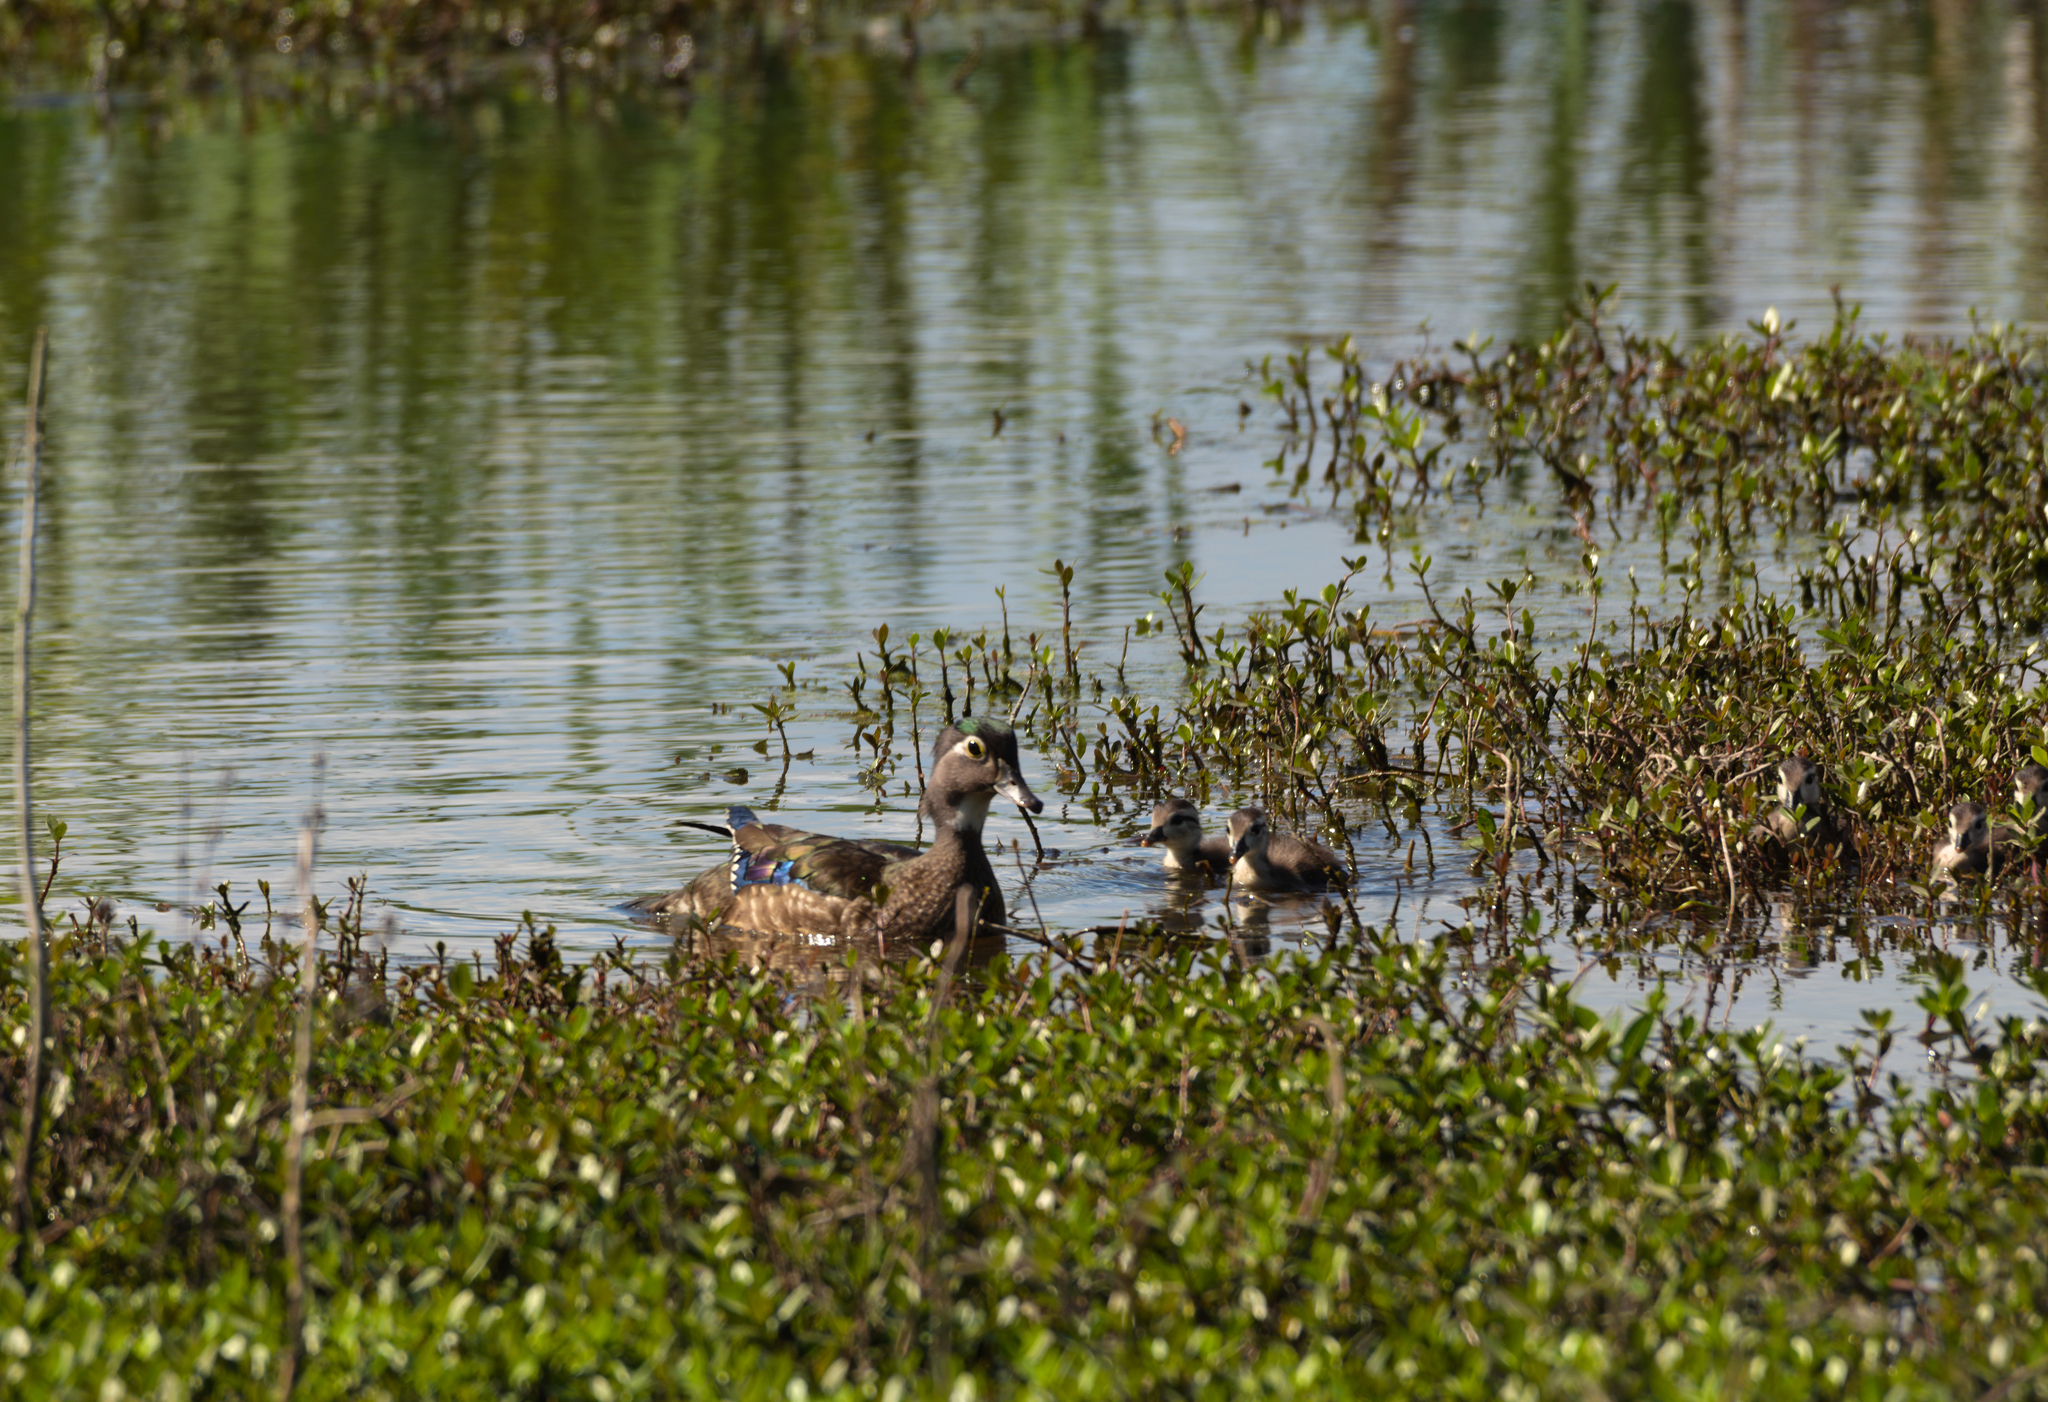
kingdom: Animalia
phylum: Chordata
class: Aves
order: Anseriformes
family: Anatidae
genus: Aix
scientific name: Aix sponsa
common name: Wood duck
